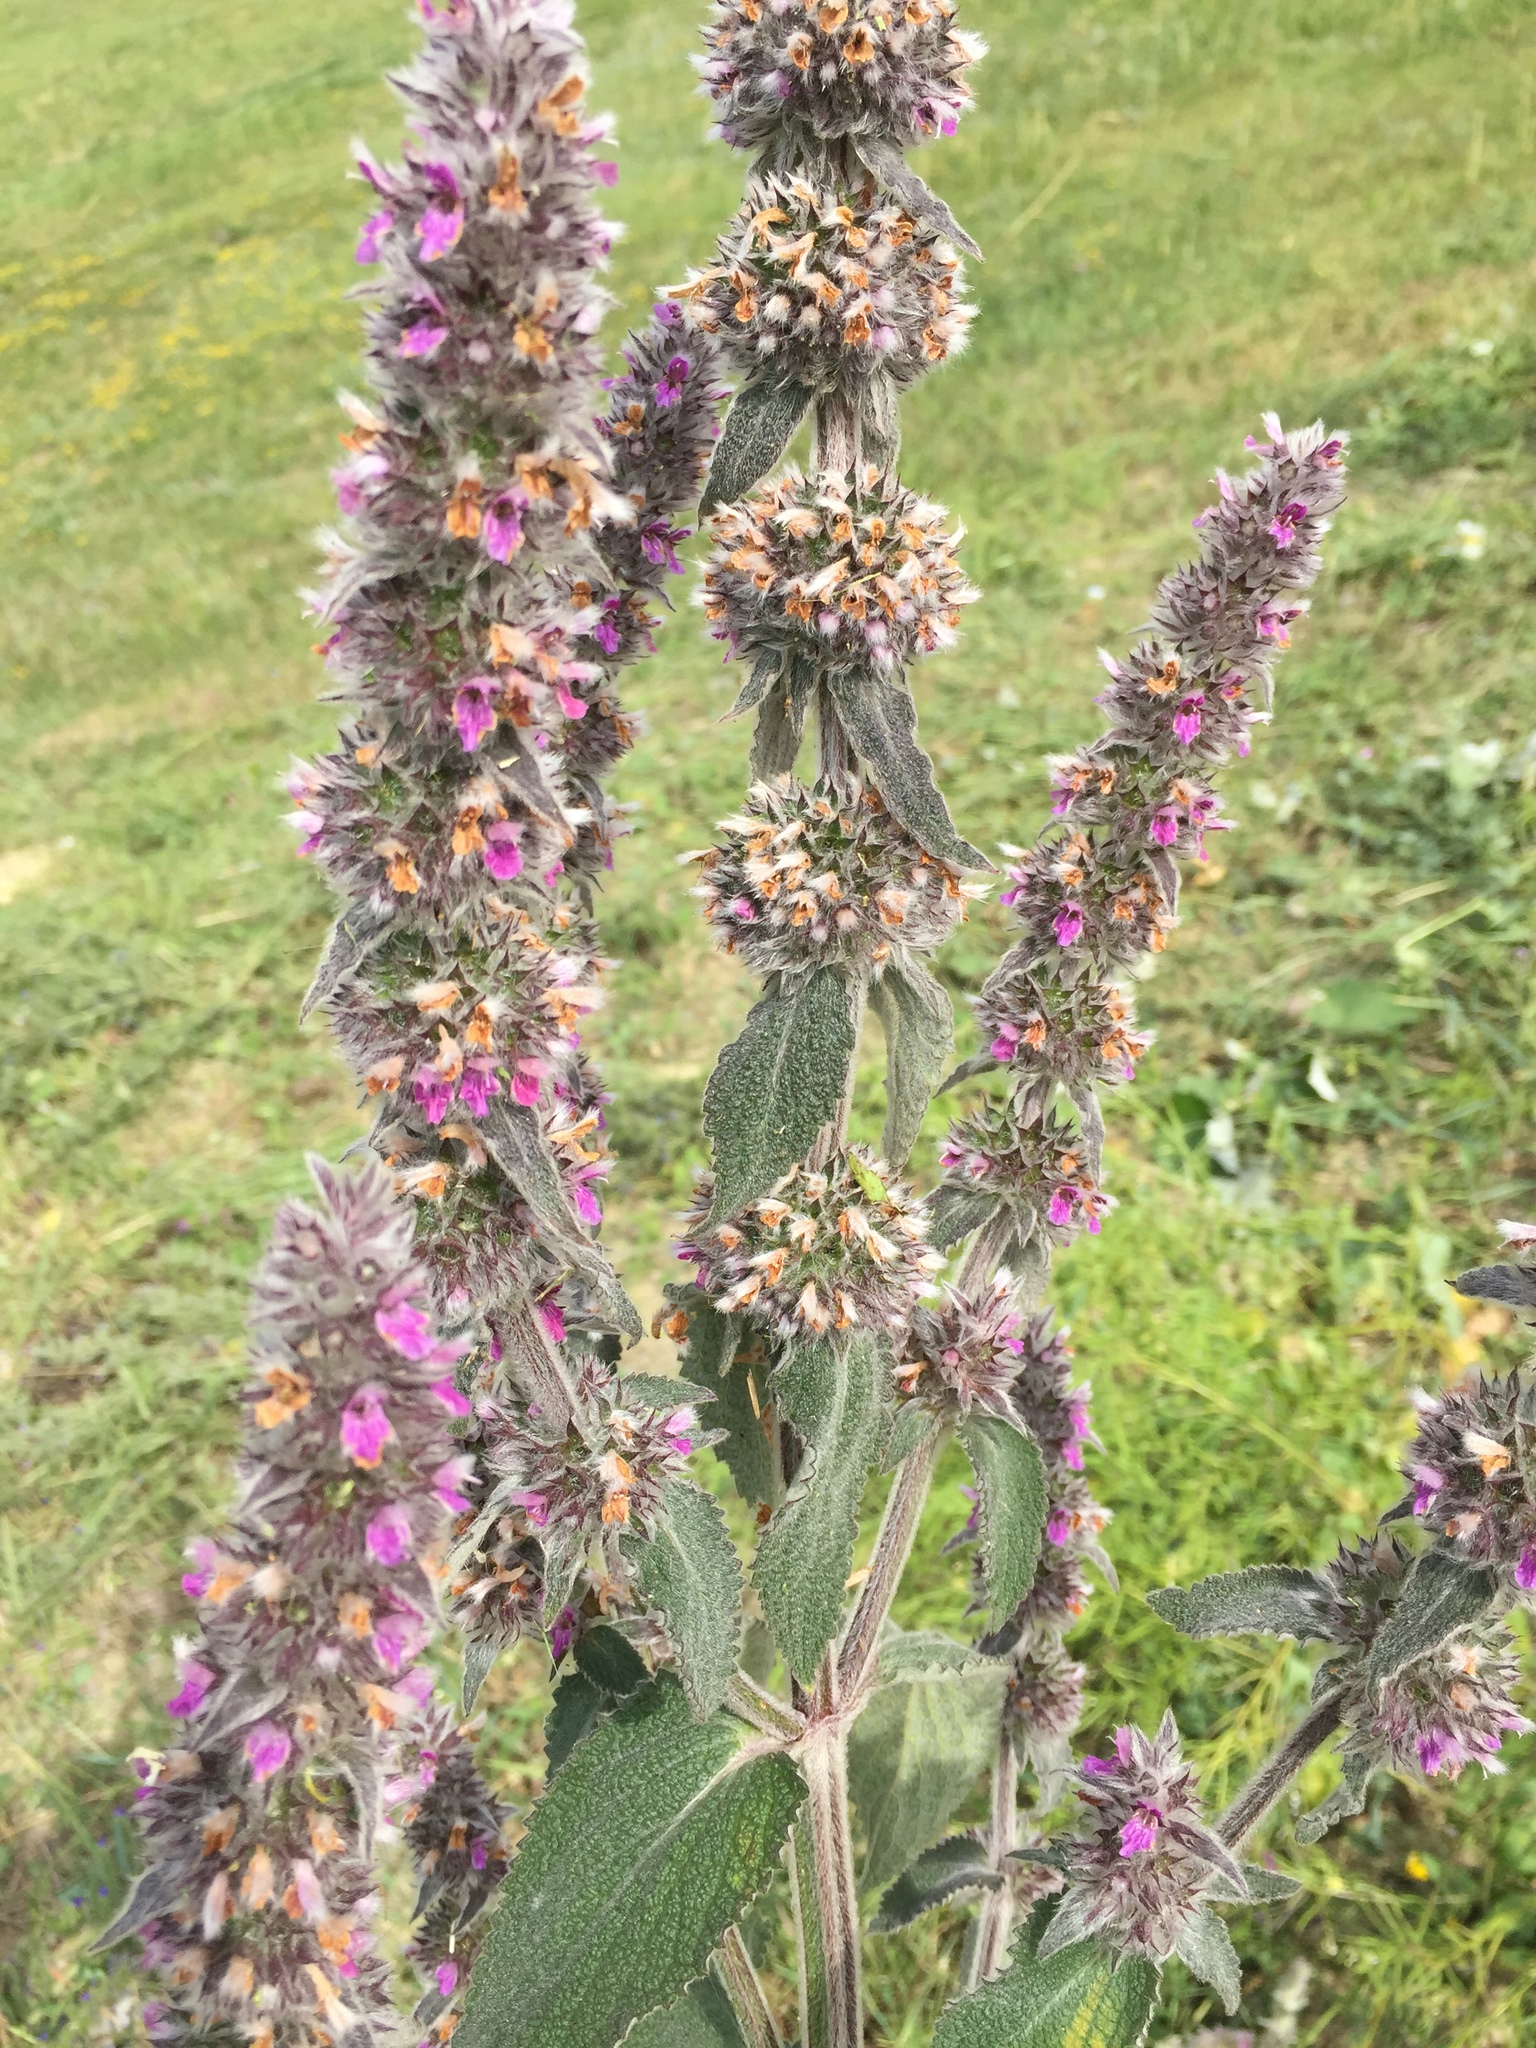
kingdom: Plantae
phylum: Tracheophyta
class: Magnoliopsida
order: Lamiales
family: Lamiaceae
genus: Stachys
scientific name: Stachys germanica
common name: Downy woundwort
